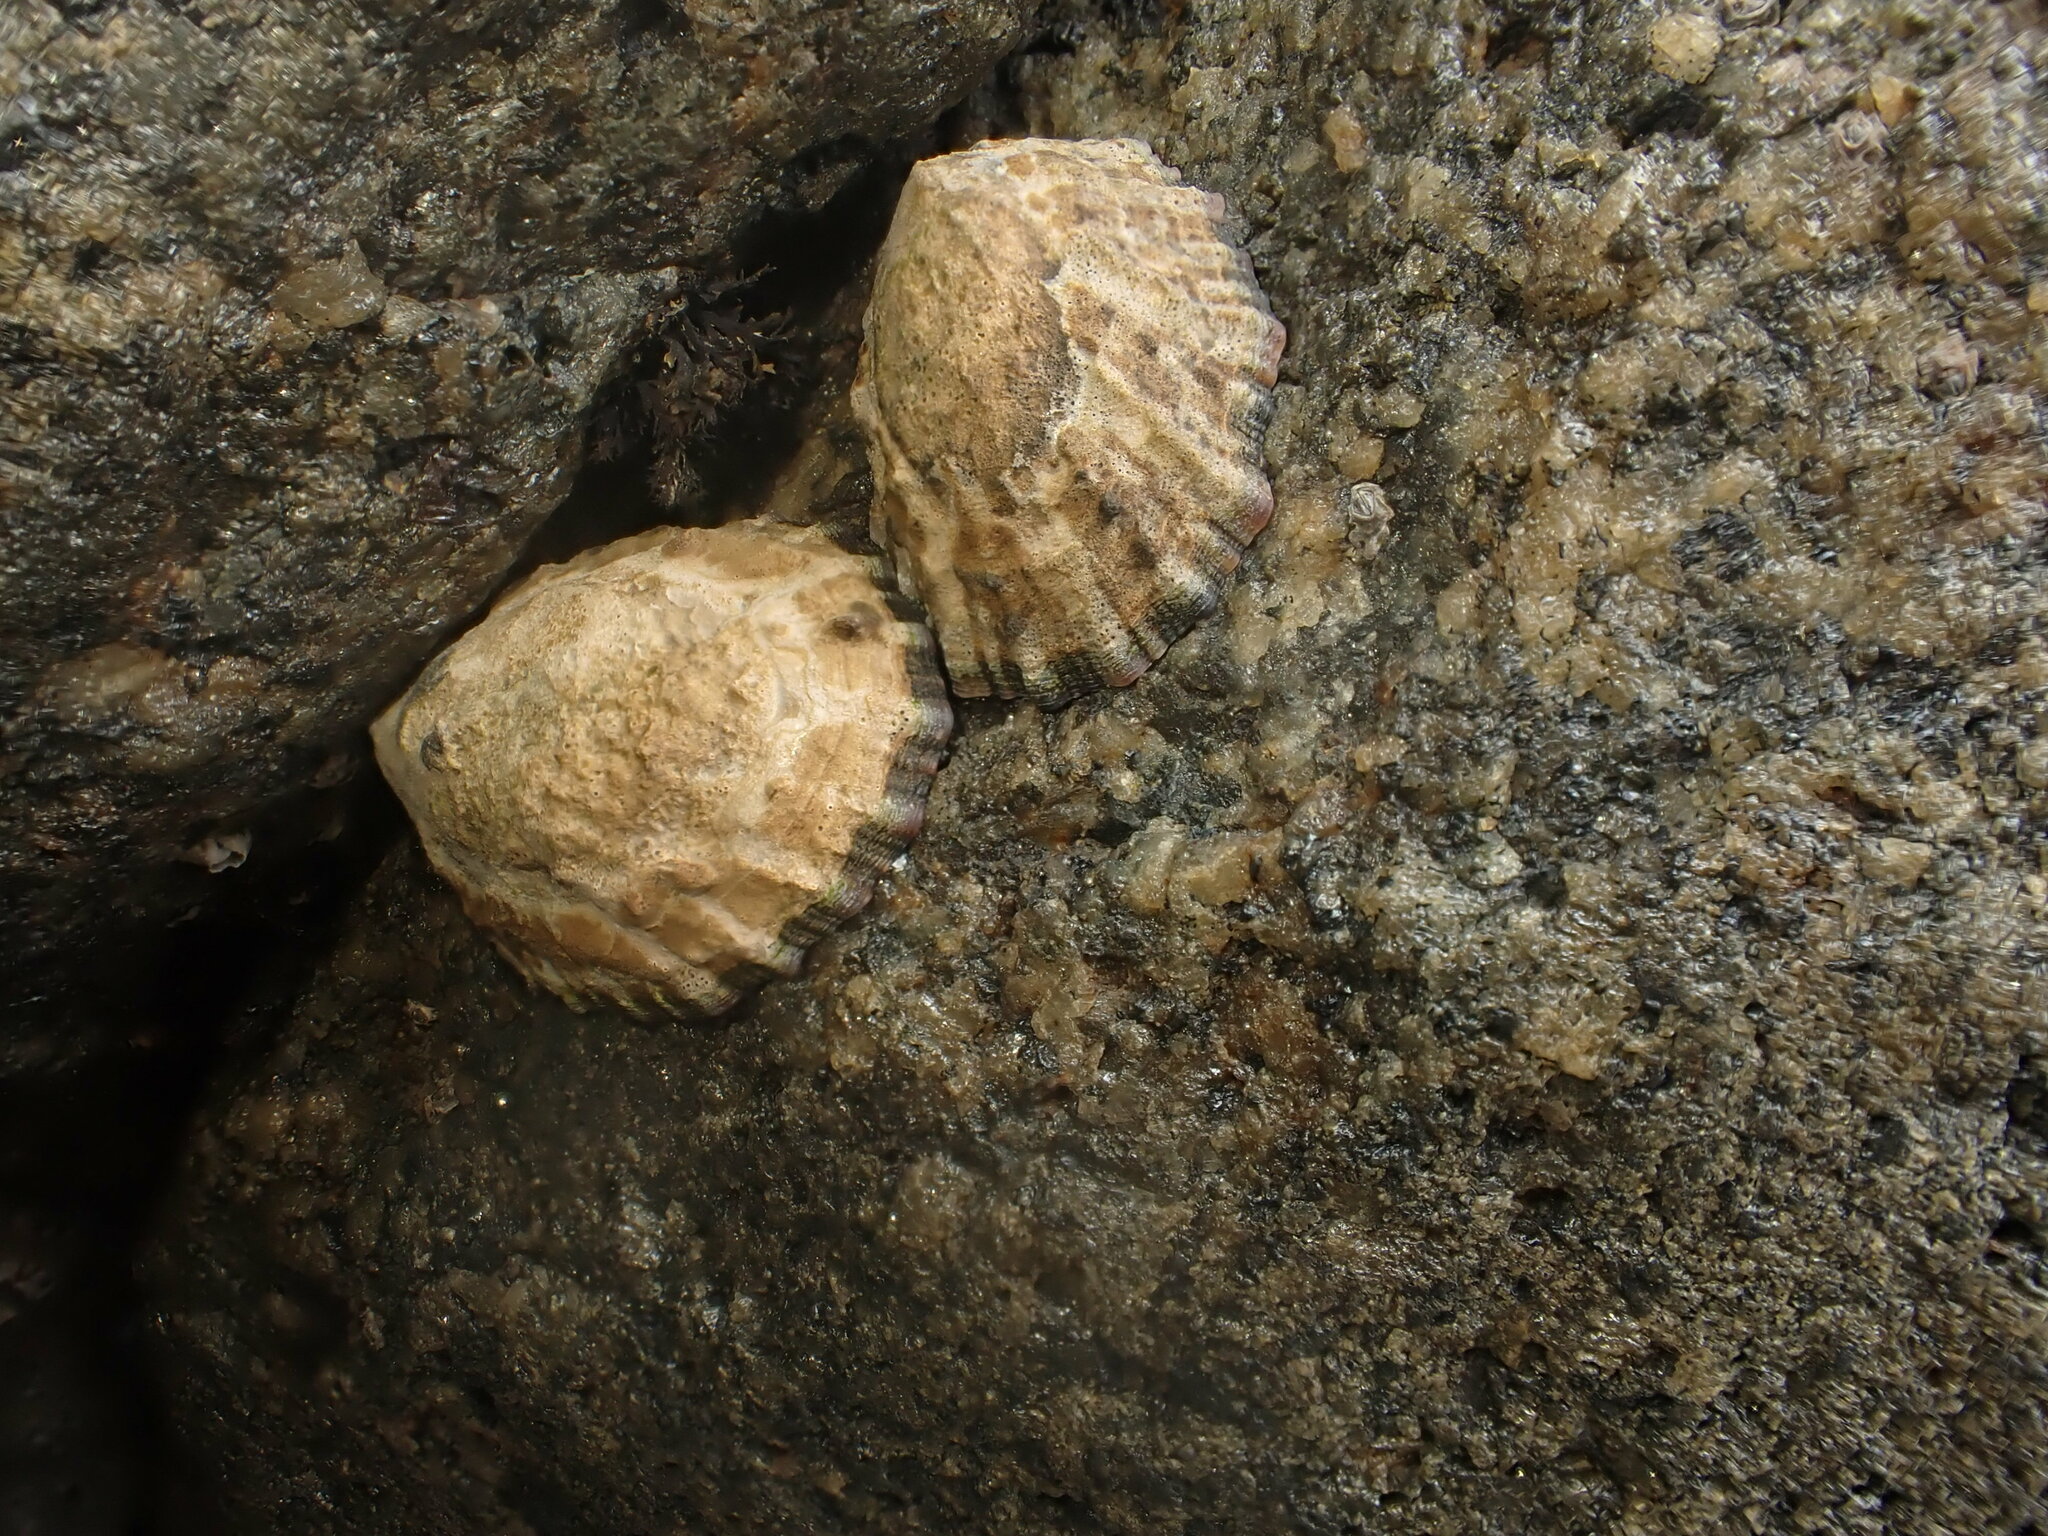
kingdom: Animalia
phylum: Mollusca
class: Gastropoda
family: Nacellidae
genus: Cellana
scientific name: Cellana ornata
